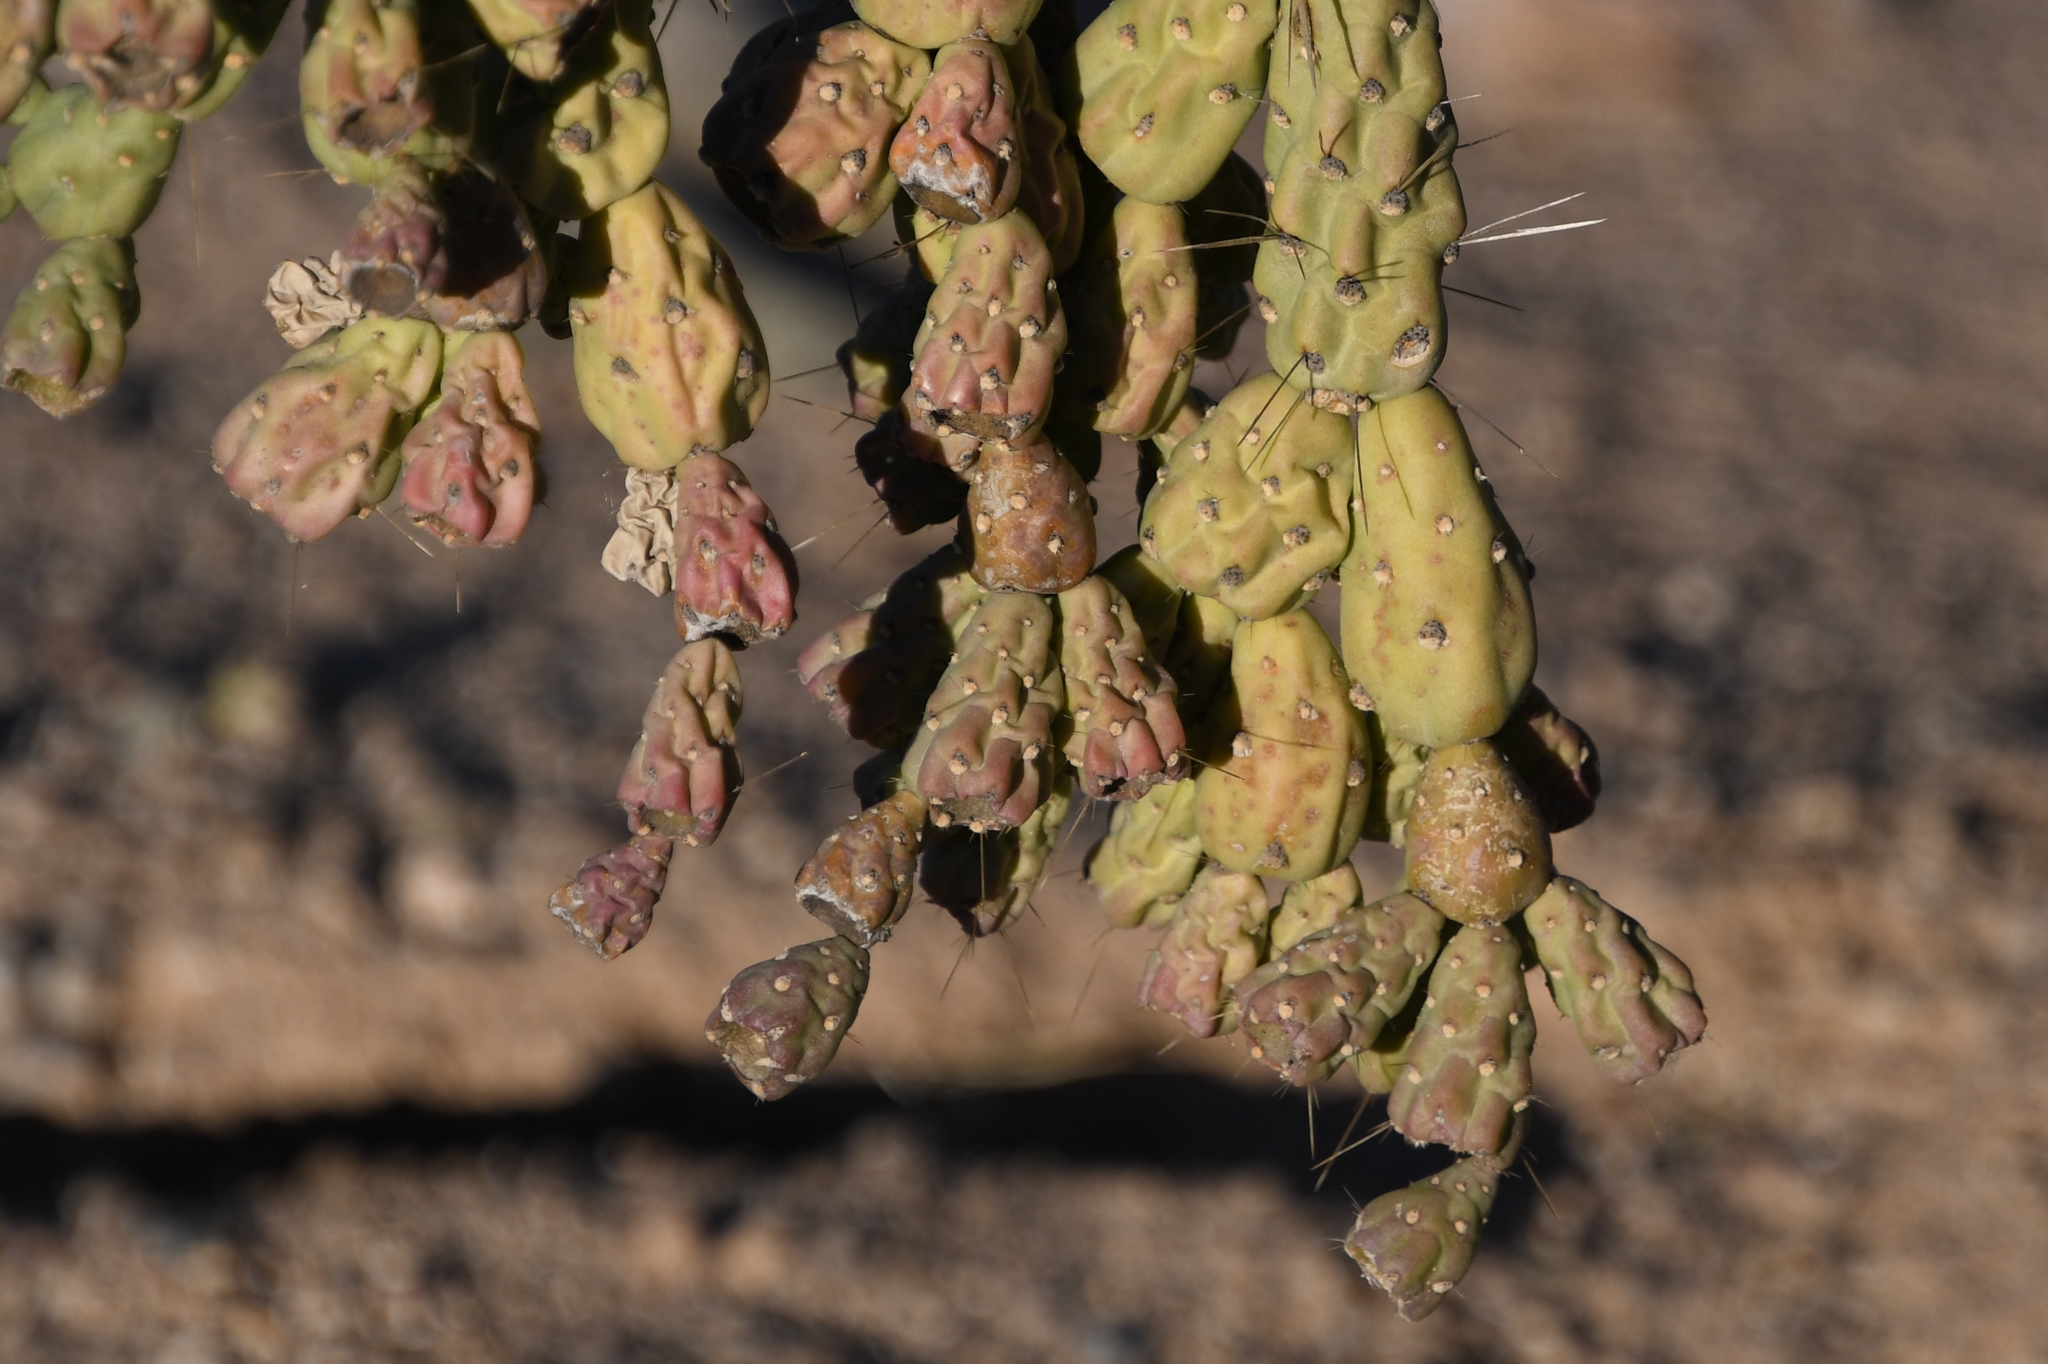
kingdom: Plantae
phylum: Tracheophyta
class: Magnoliopsida
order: Caryophyllales
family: Cactaceae
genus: Cylindropuntia
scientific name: Cylindropuntia fulgida
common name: Jumping cholla
